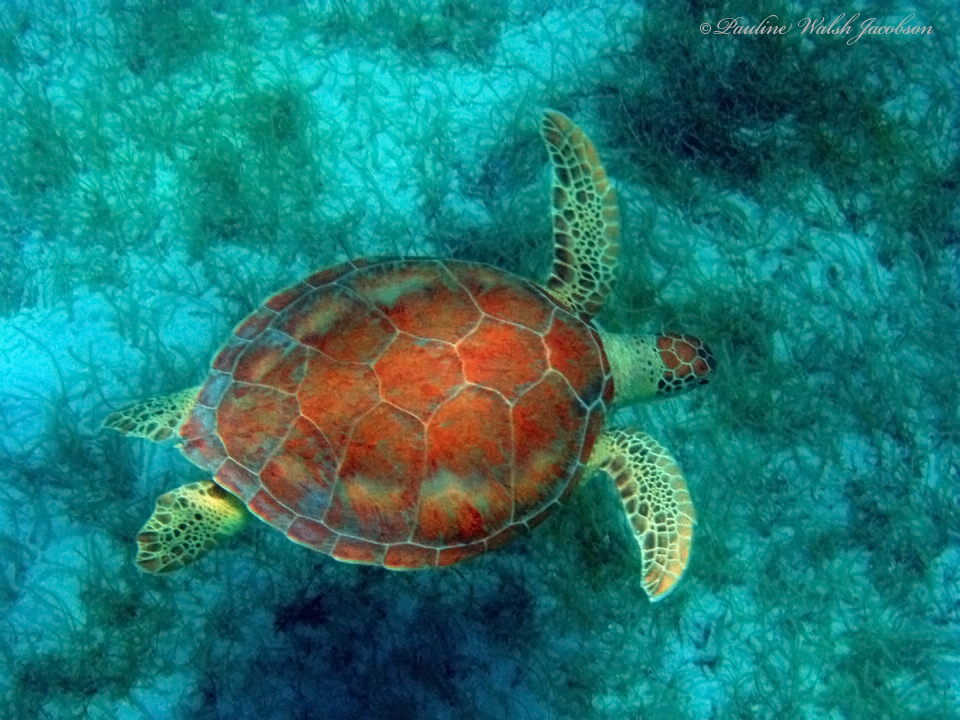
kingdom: Animalia
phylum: Chordata
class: Testudines
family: Cheloniidae
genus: Chelonia
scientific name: Chelonia mydas
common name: Green turtle
